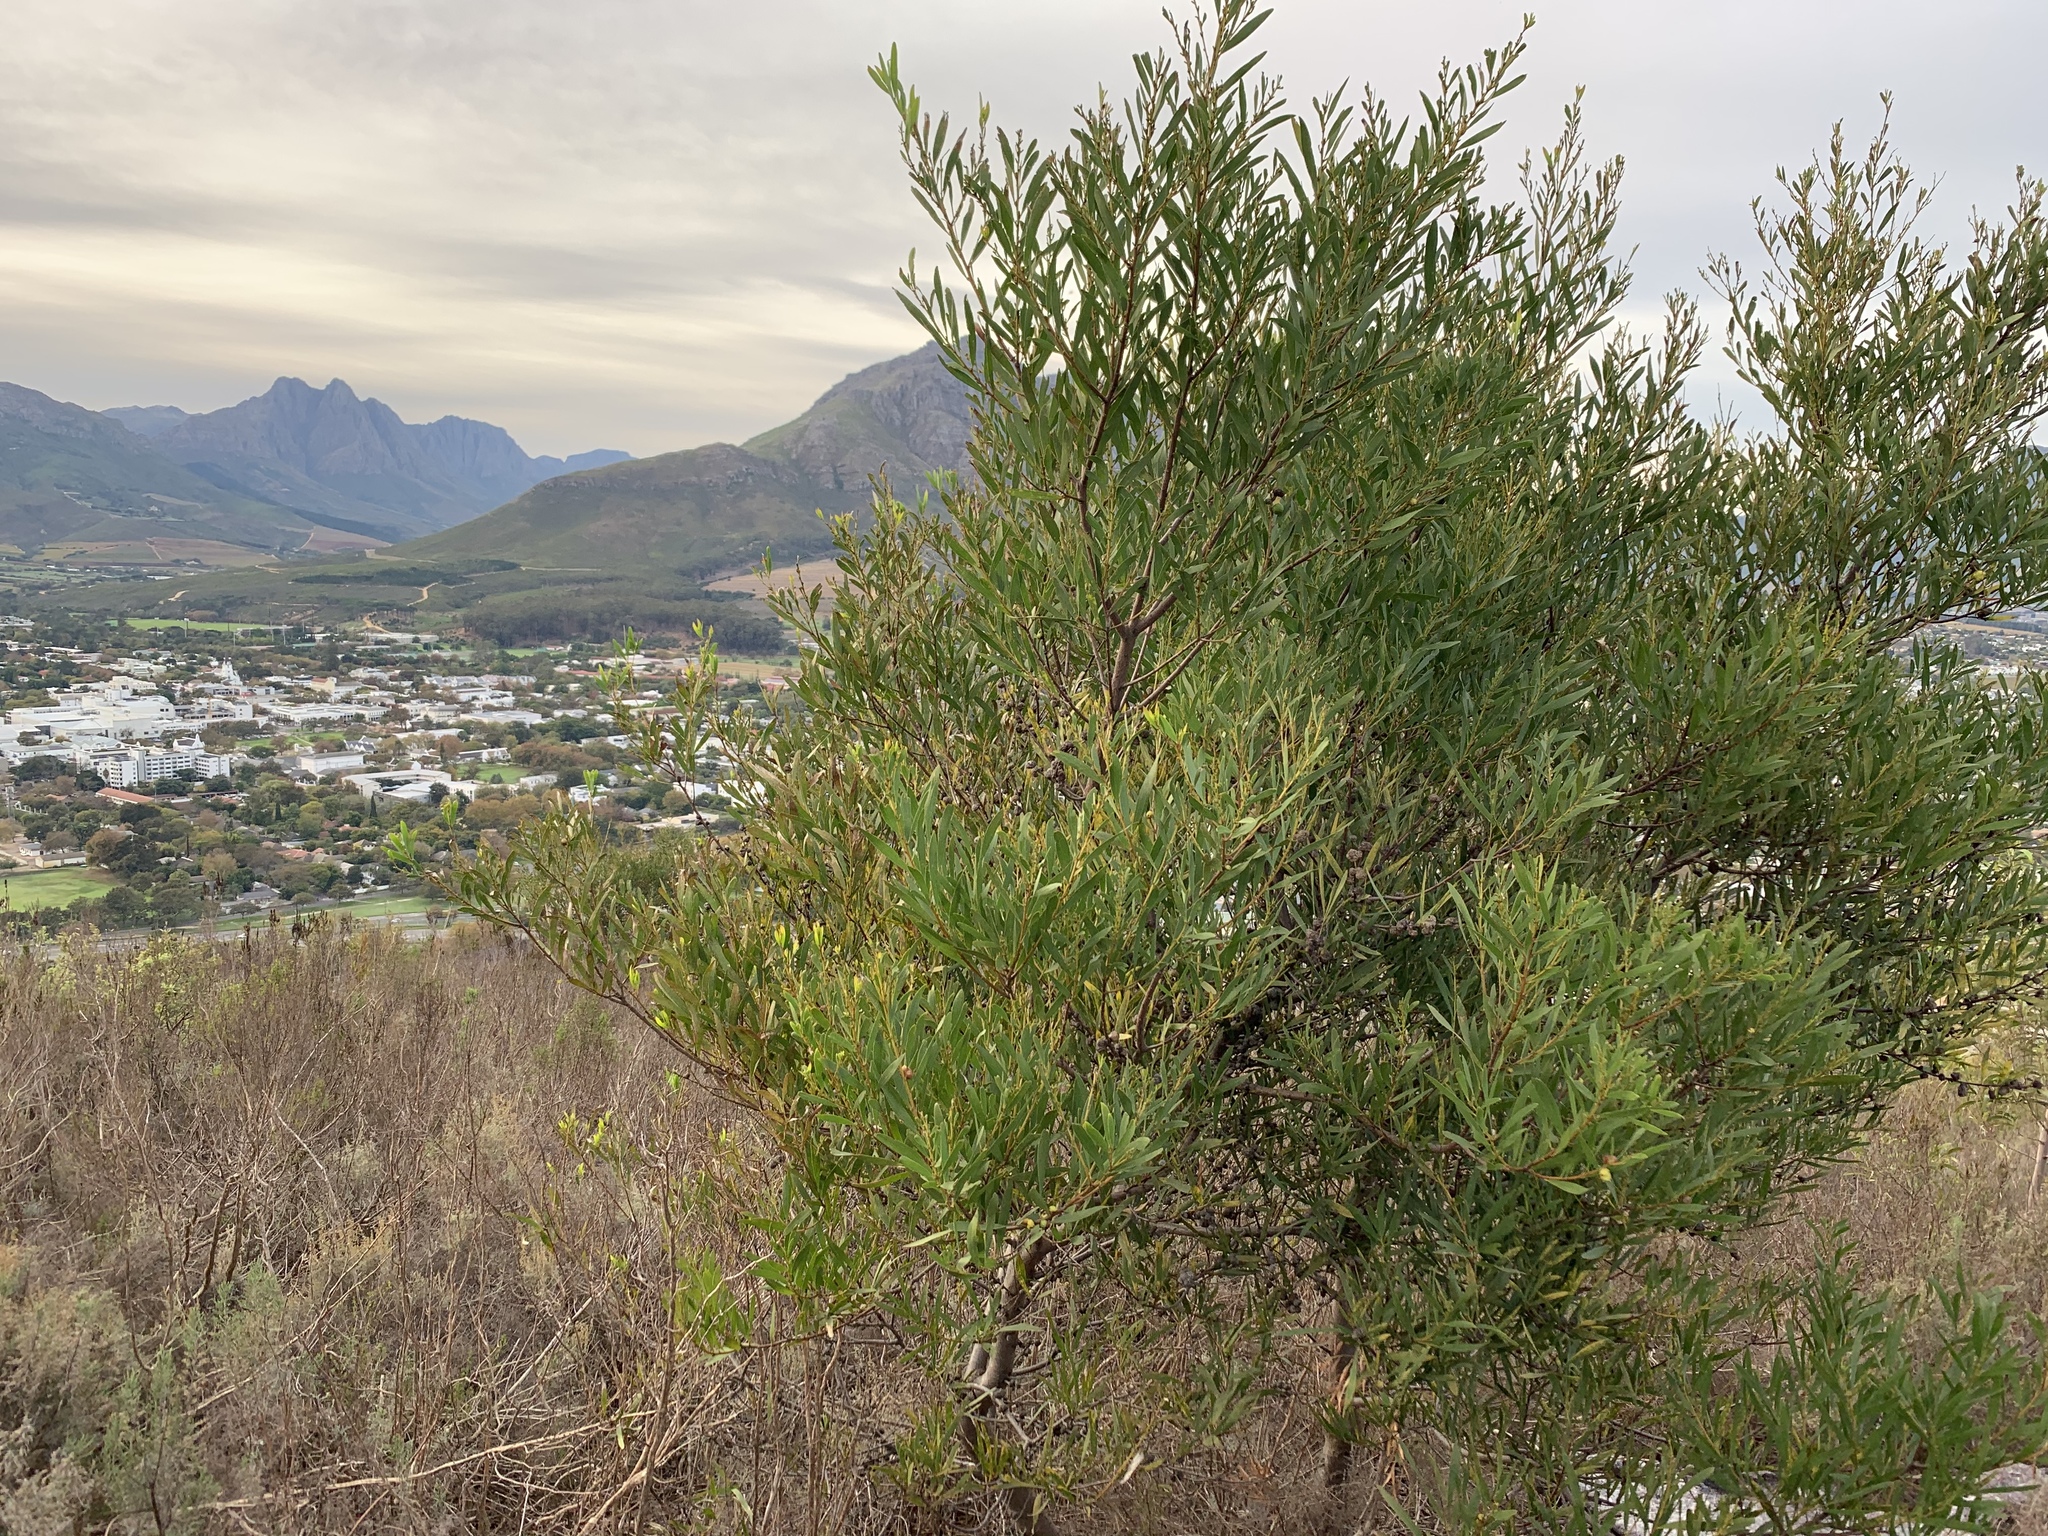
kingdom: Plantae
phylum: Tracheophyta
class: Magnoliopsida
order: Fabales
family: Fabaceae
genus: Acacia
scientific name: Acacia longifolia
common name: Sydney golden wattle
